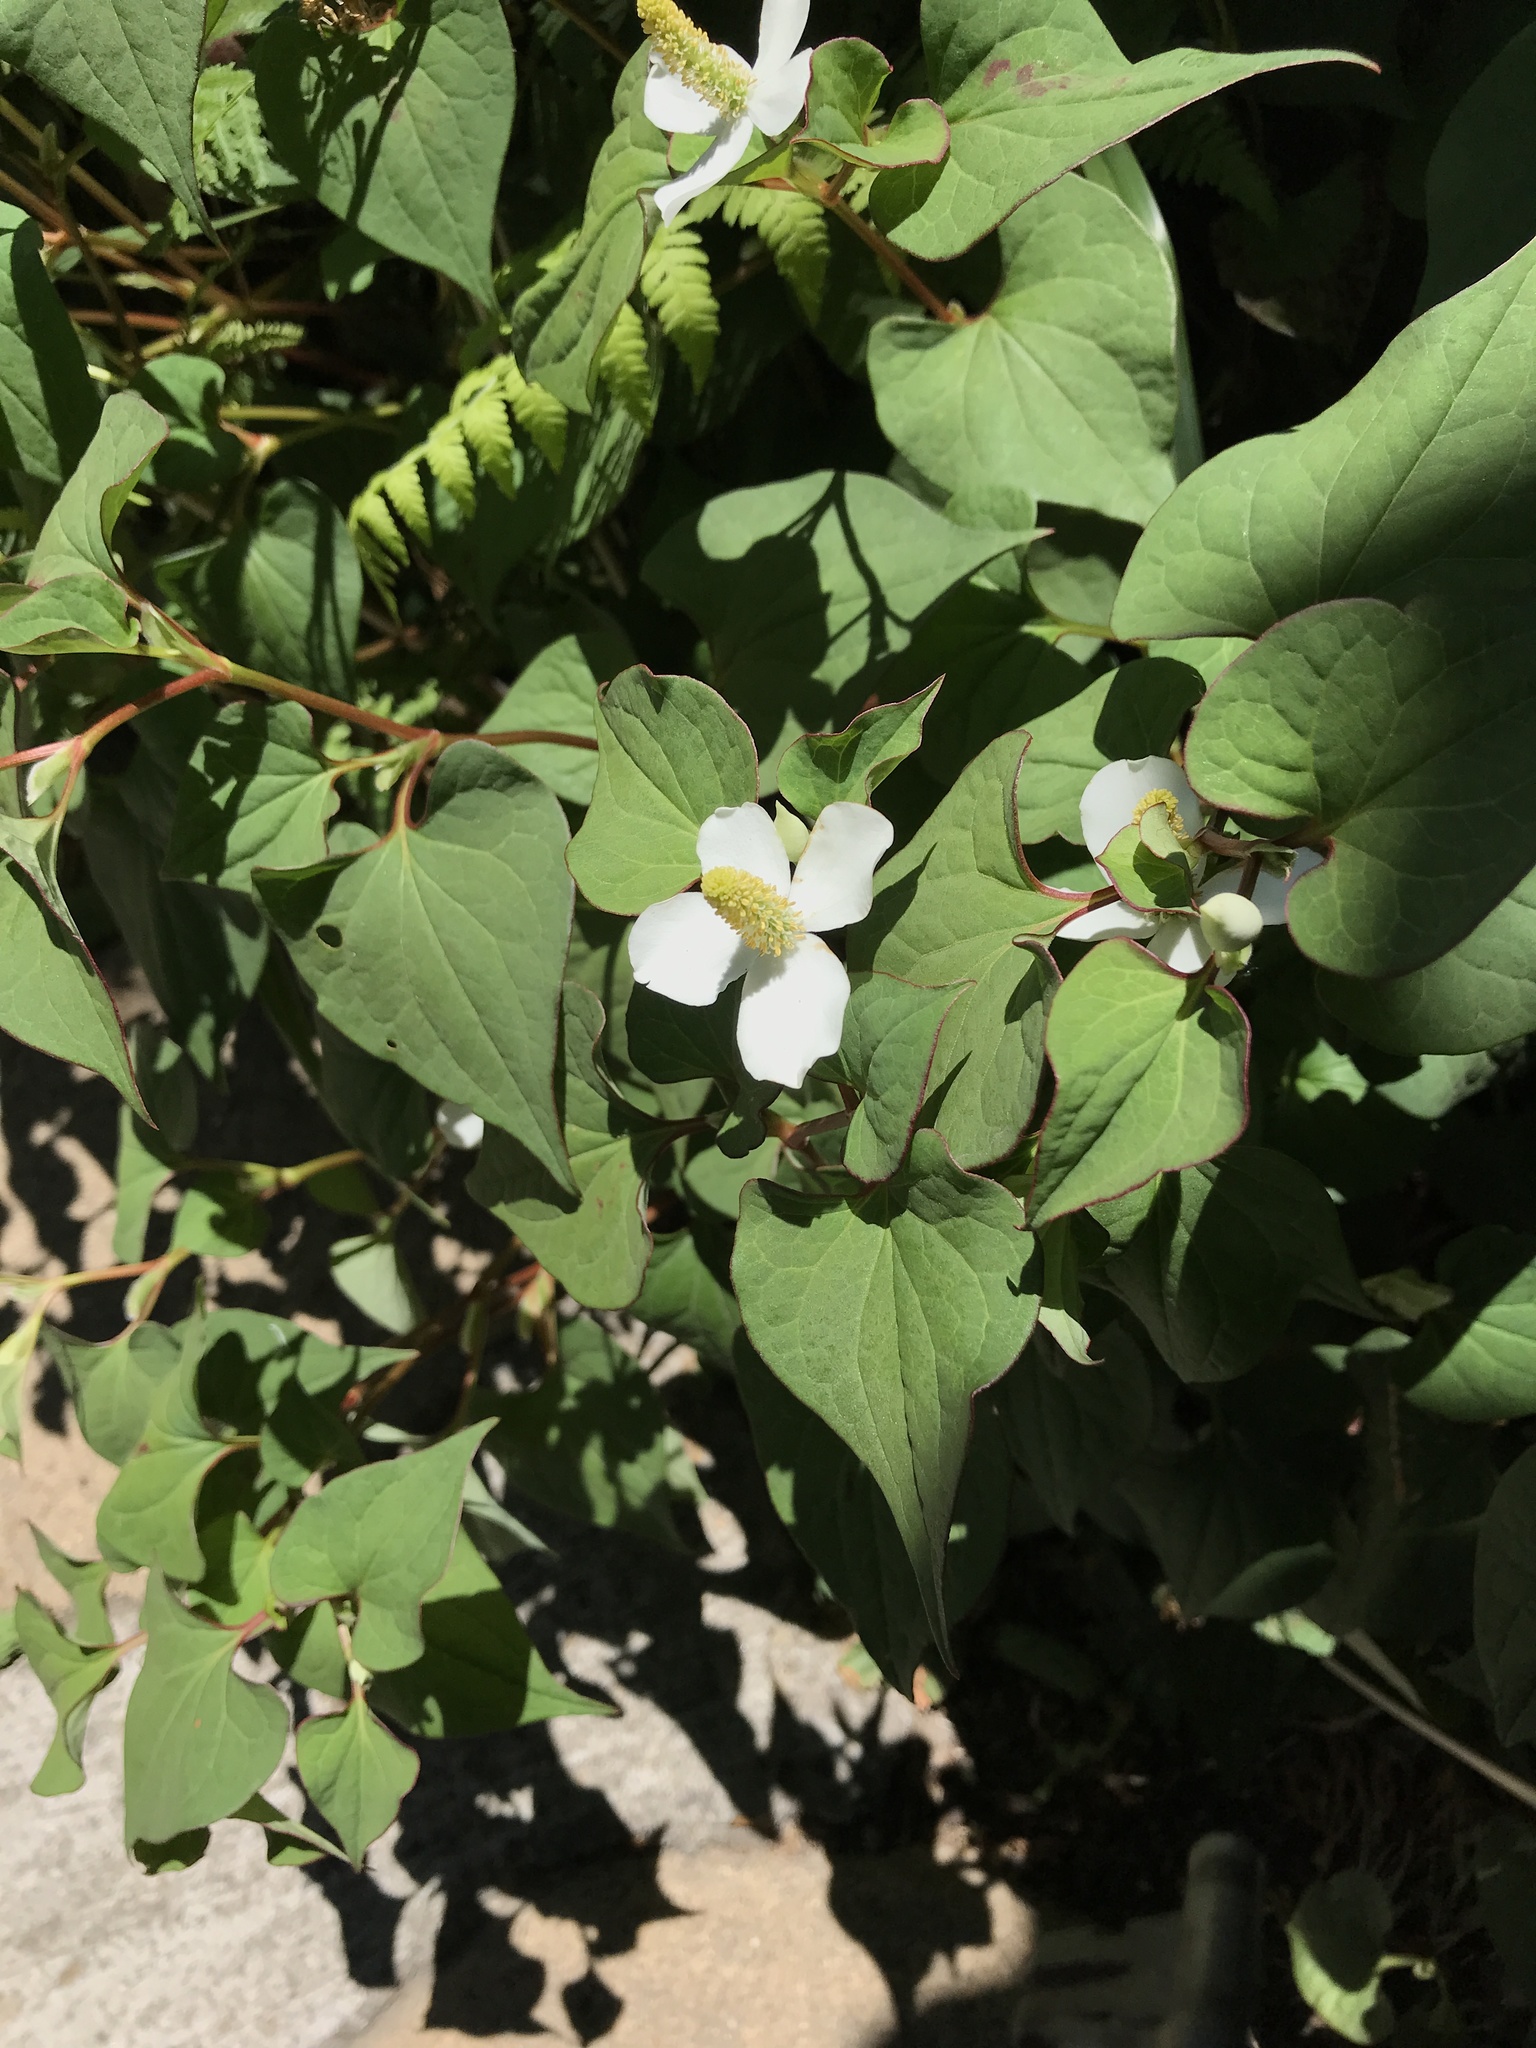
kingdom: Plantae
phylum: Tracheophyta
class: Magnoliopsida
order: Piperales
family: Saururaceae
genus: Houttuynia
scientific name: Houttuynia cordata
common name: Chameleon
